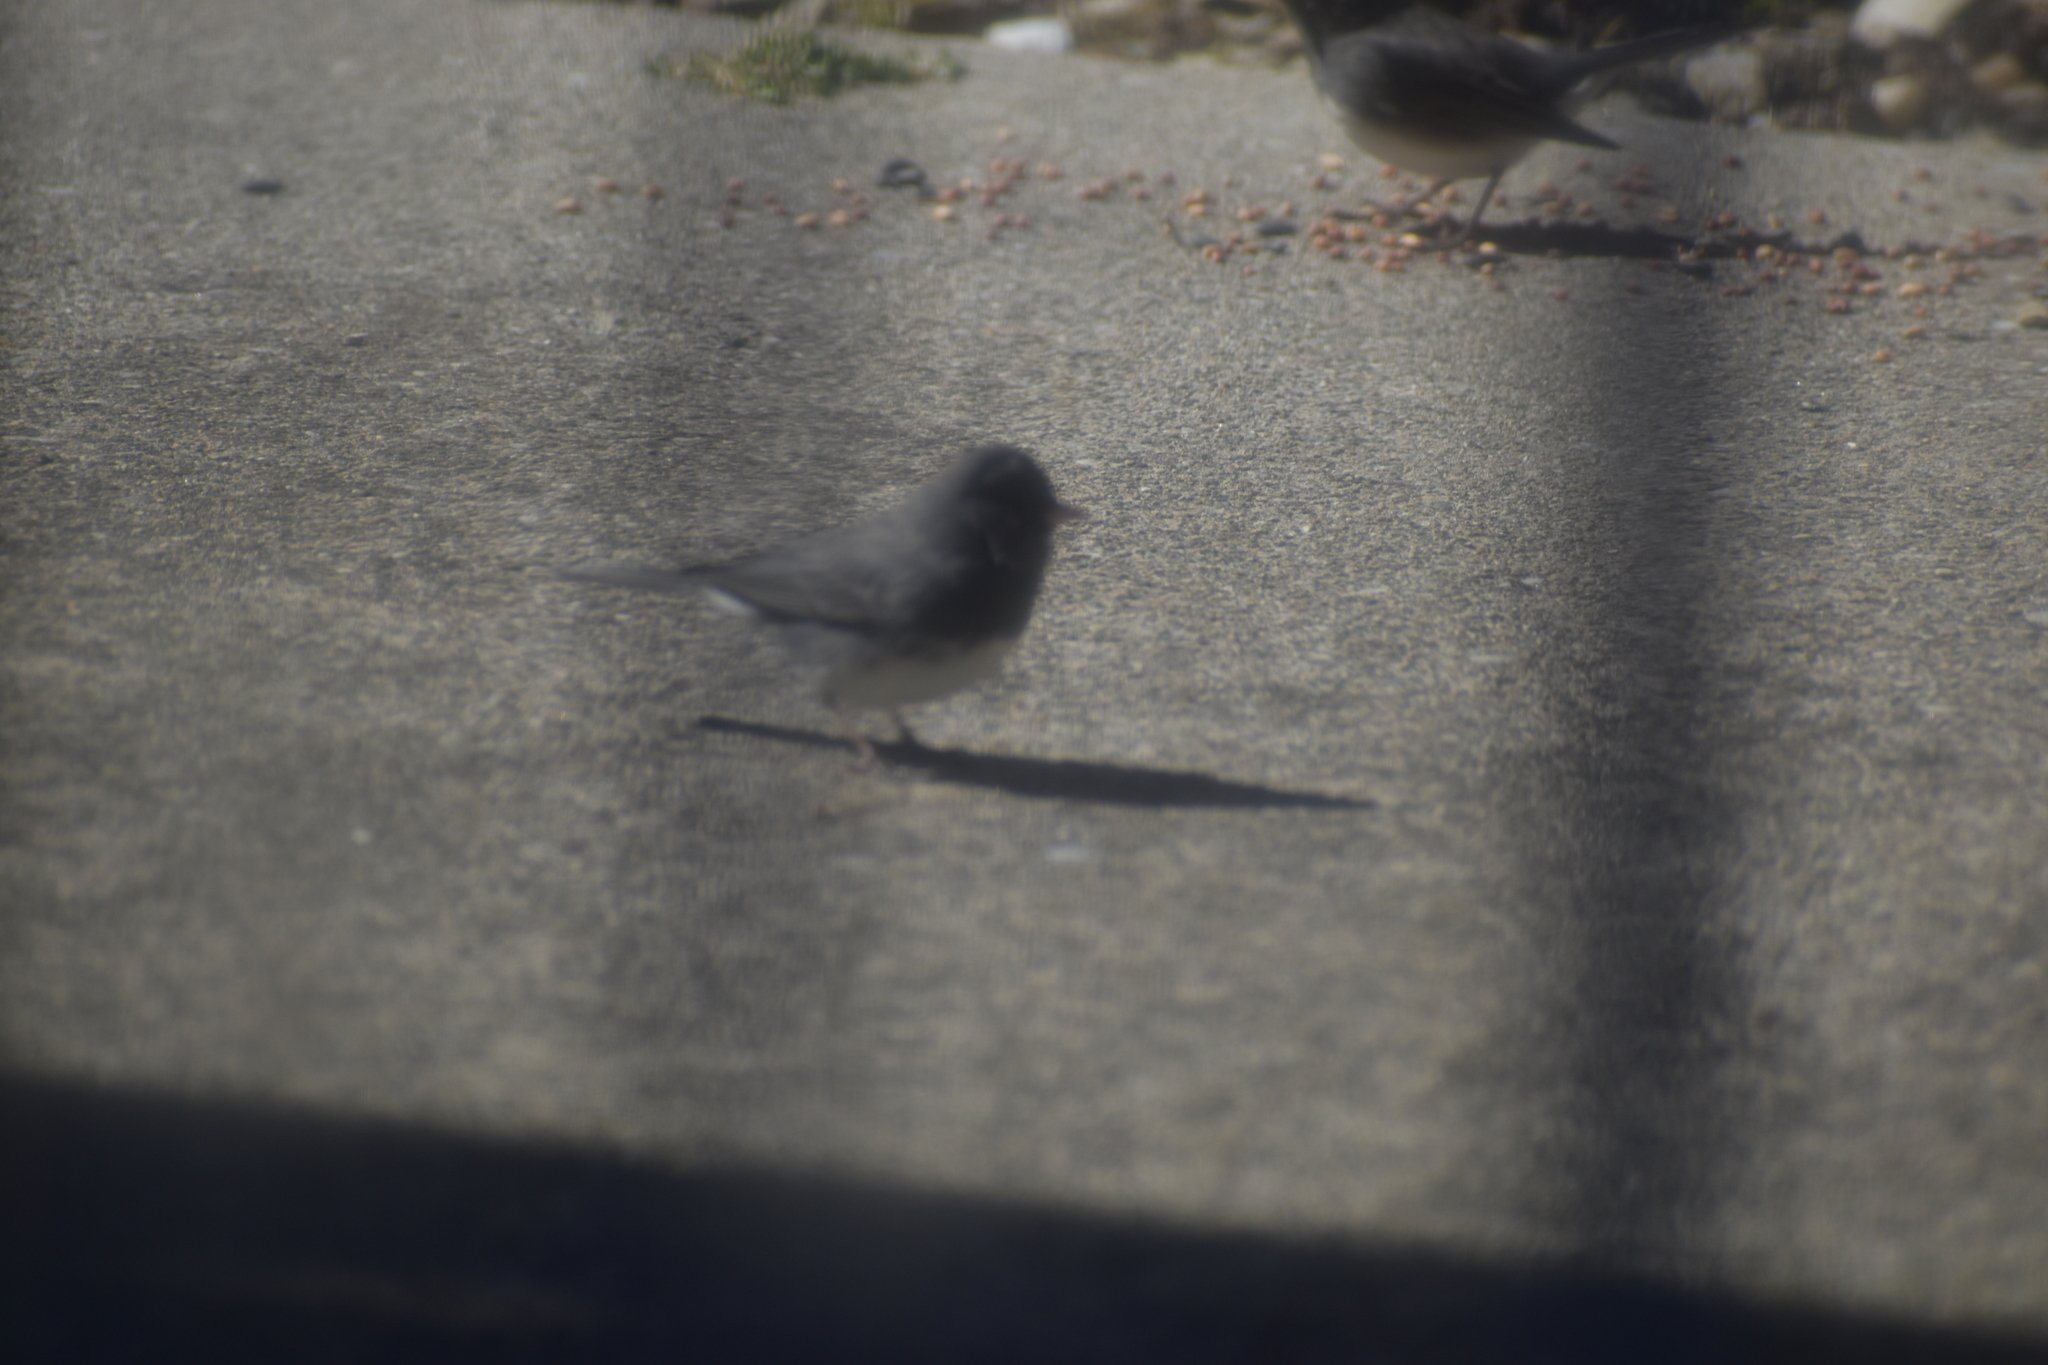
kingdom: Animalia
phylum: Chordata
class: Aves
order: Passeriformes
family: Passerellidae
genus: Junco
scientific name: Junco hyemalis
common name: Dark-eyed junco
